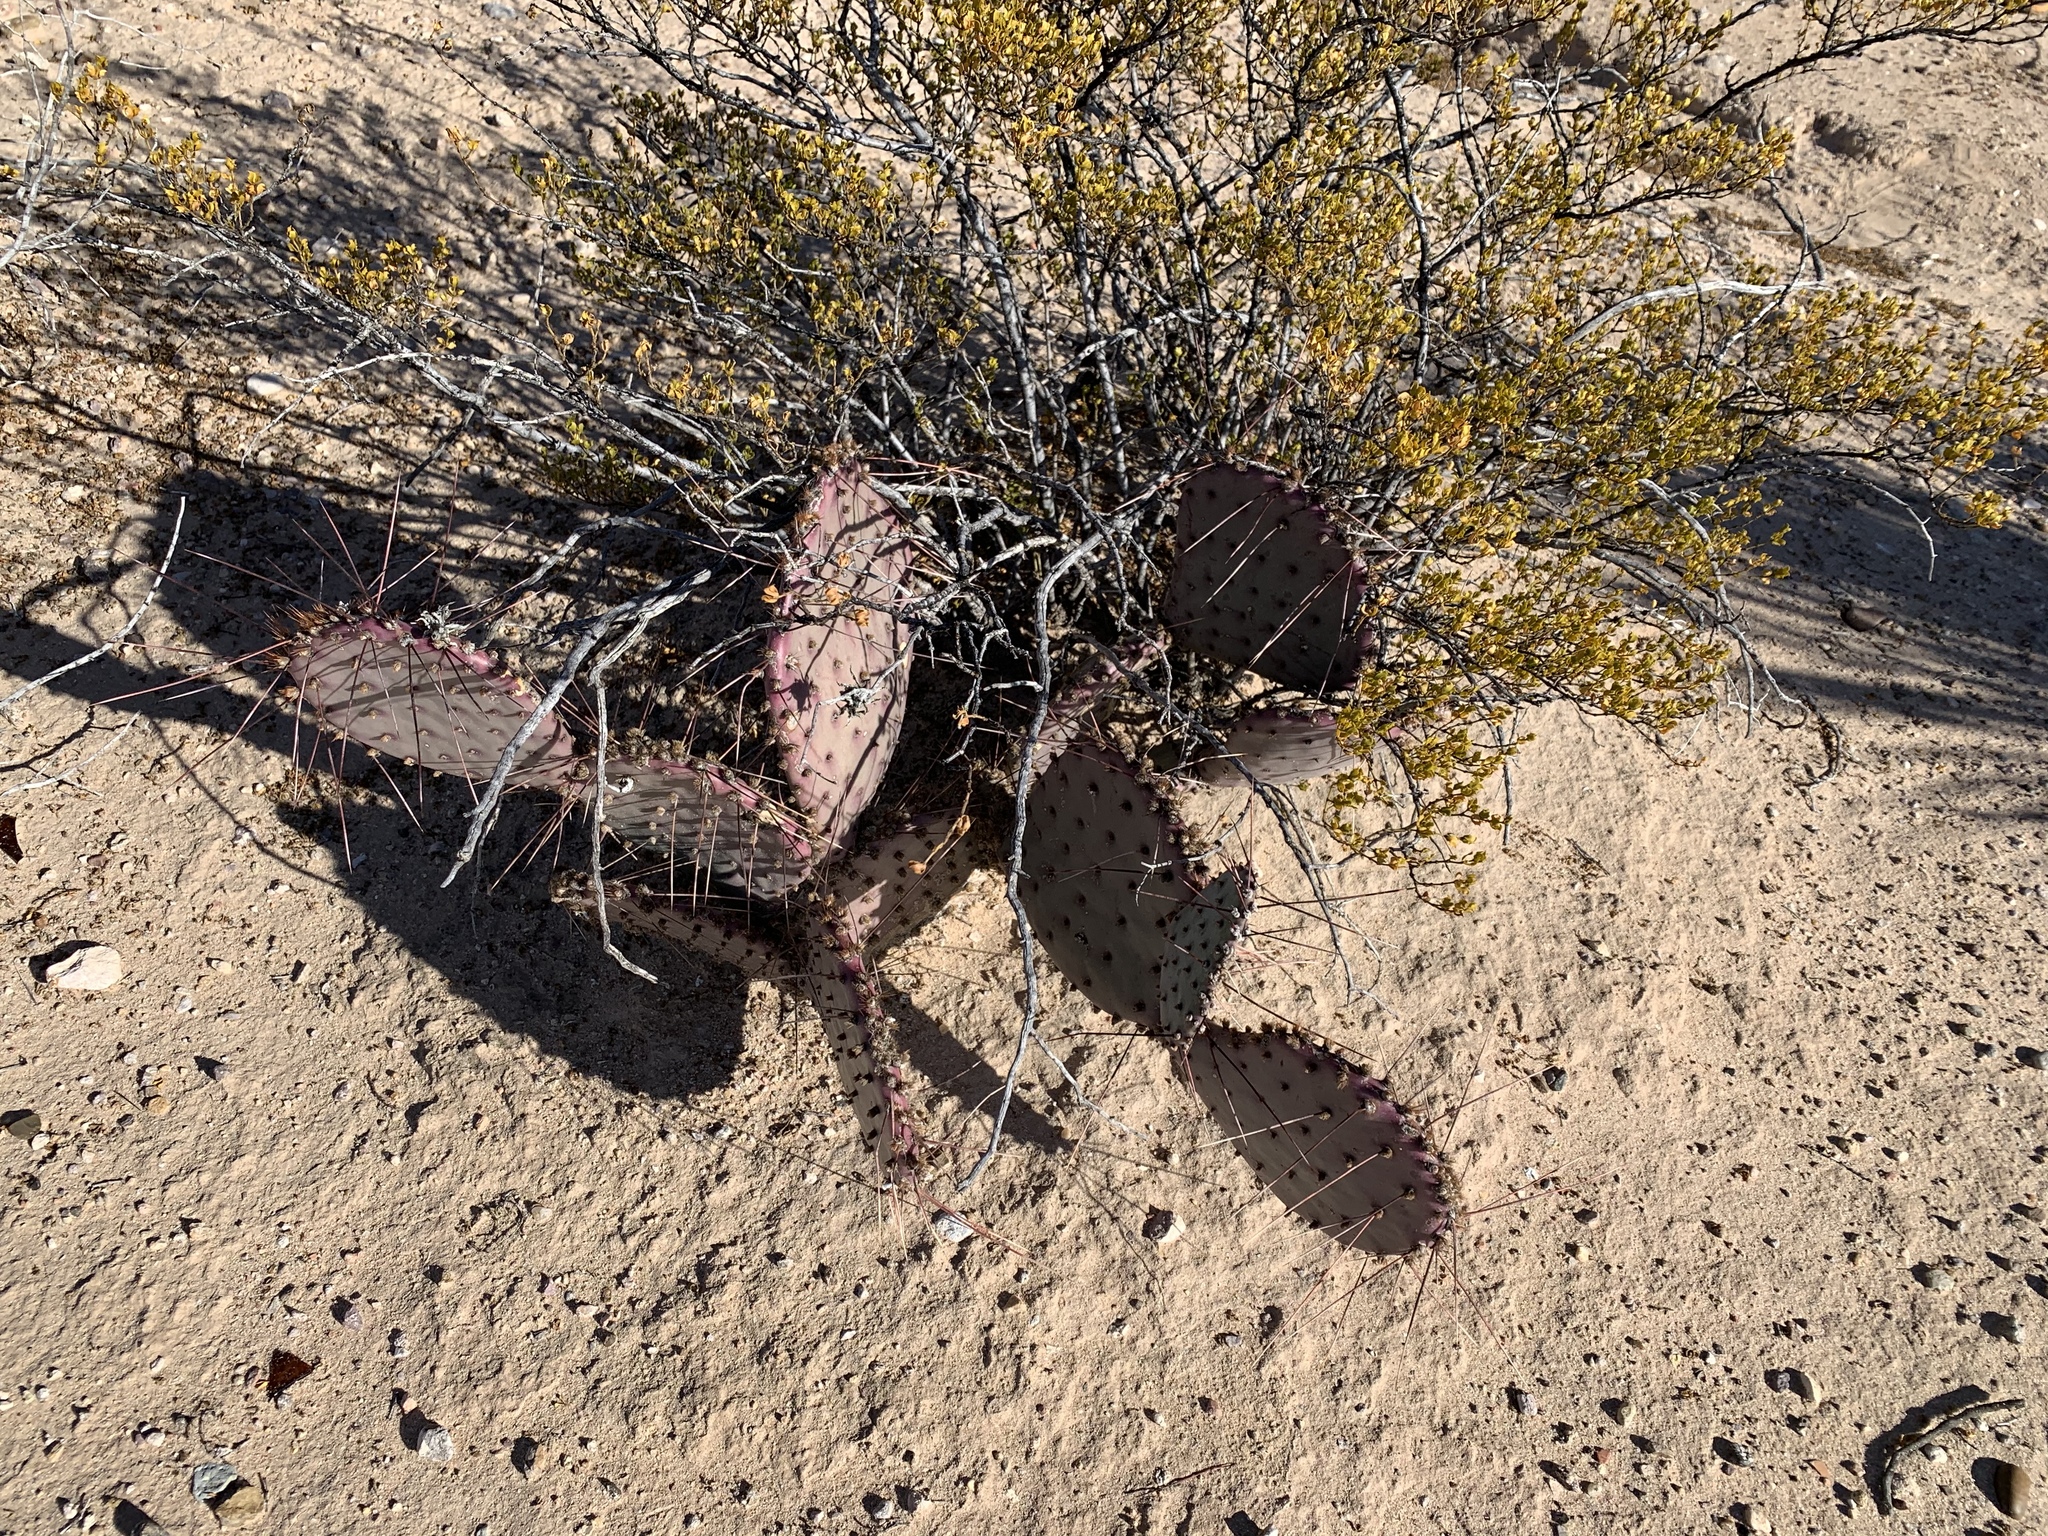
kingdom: Plantae
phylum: Tracheophyta
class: Magnoliopsida
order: Caryophyllales
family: Cactaceae
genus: Opuntia
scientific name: Opuntia macrocentra
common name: Purple prickly-pear
